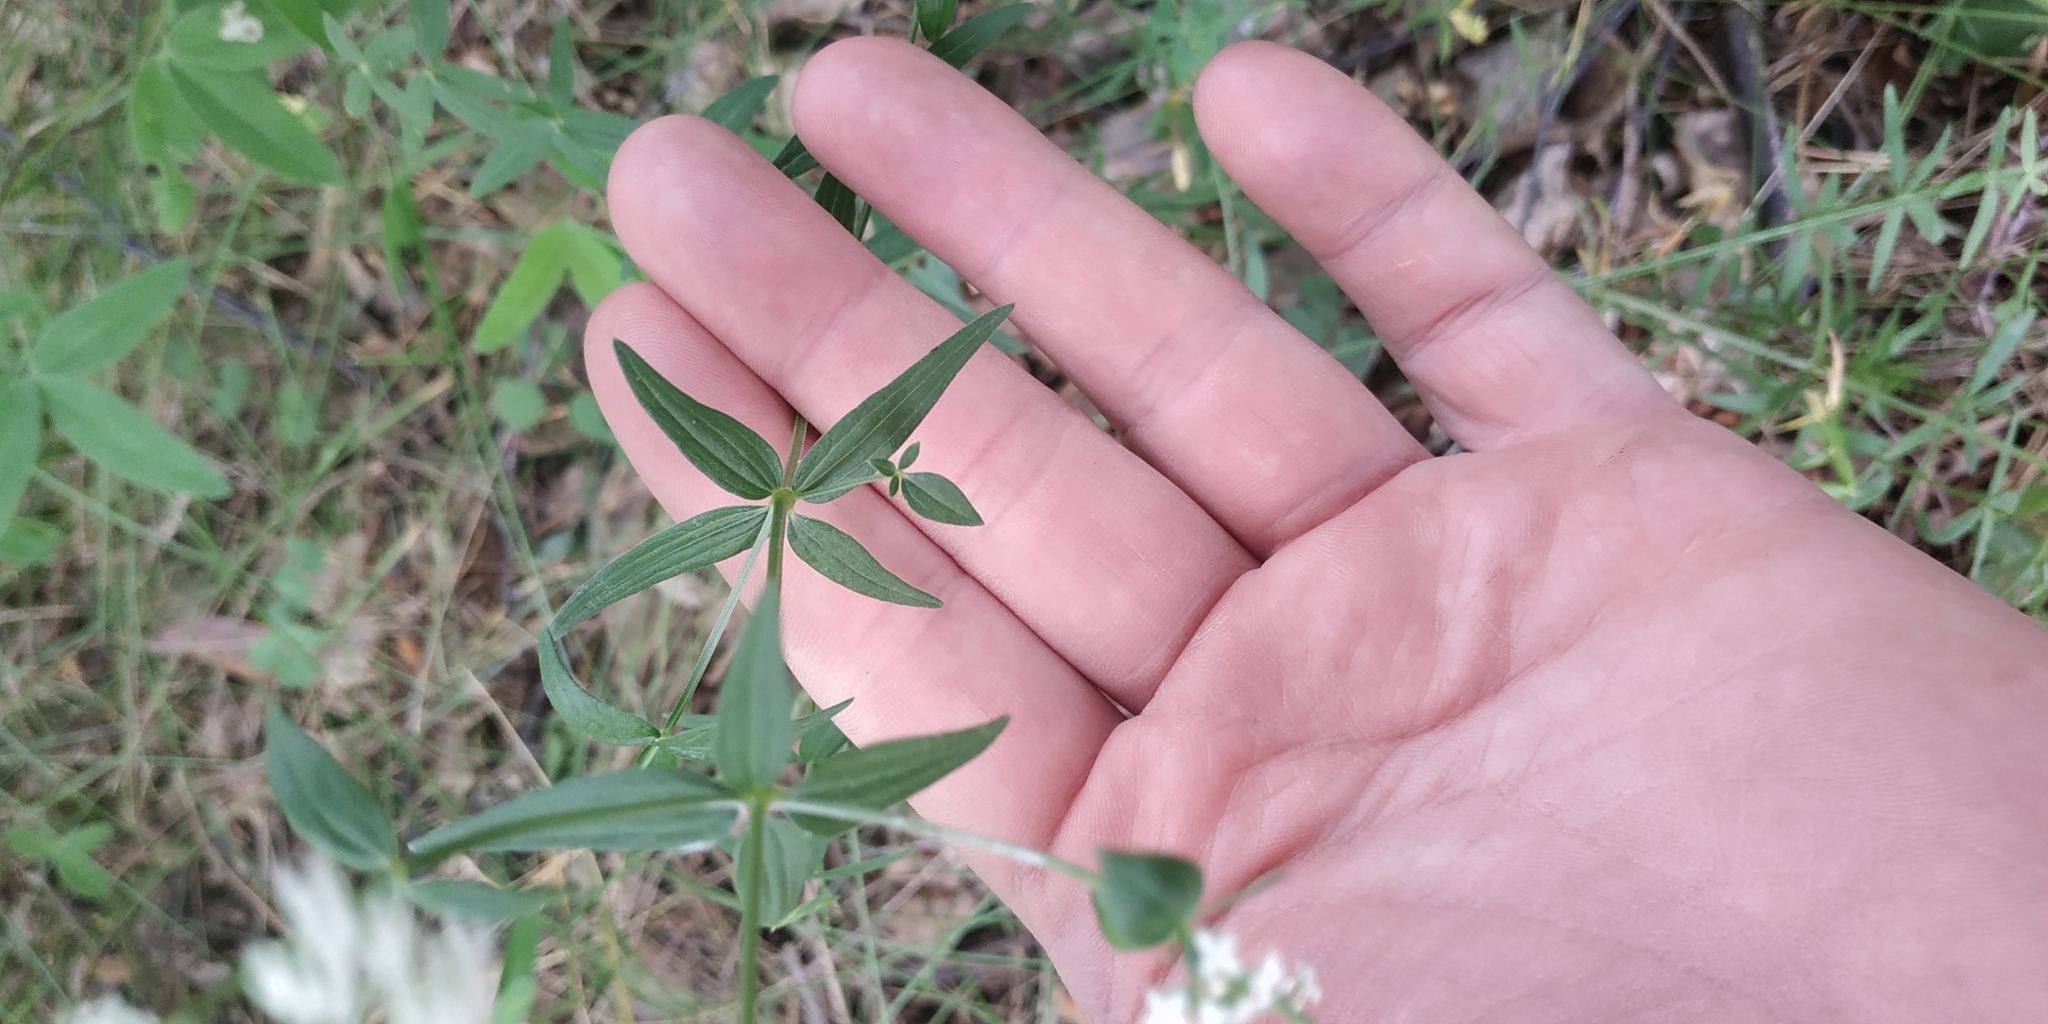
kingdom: Plantae
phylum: Tracheophyta
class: Magnoliopsida
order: Gentianales
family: Rubiaceae
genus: Galium
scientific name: Galium boreale
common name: Northern bedstraw
